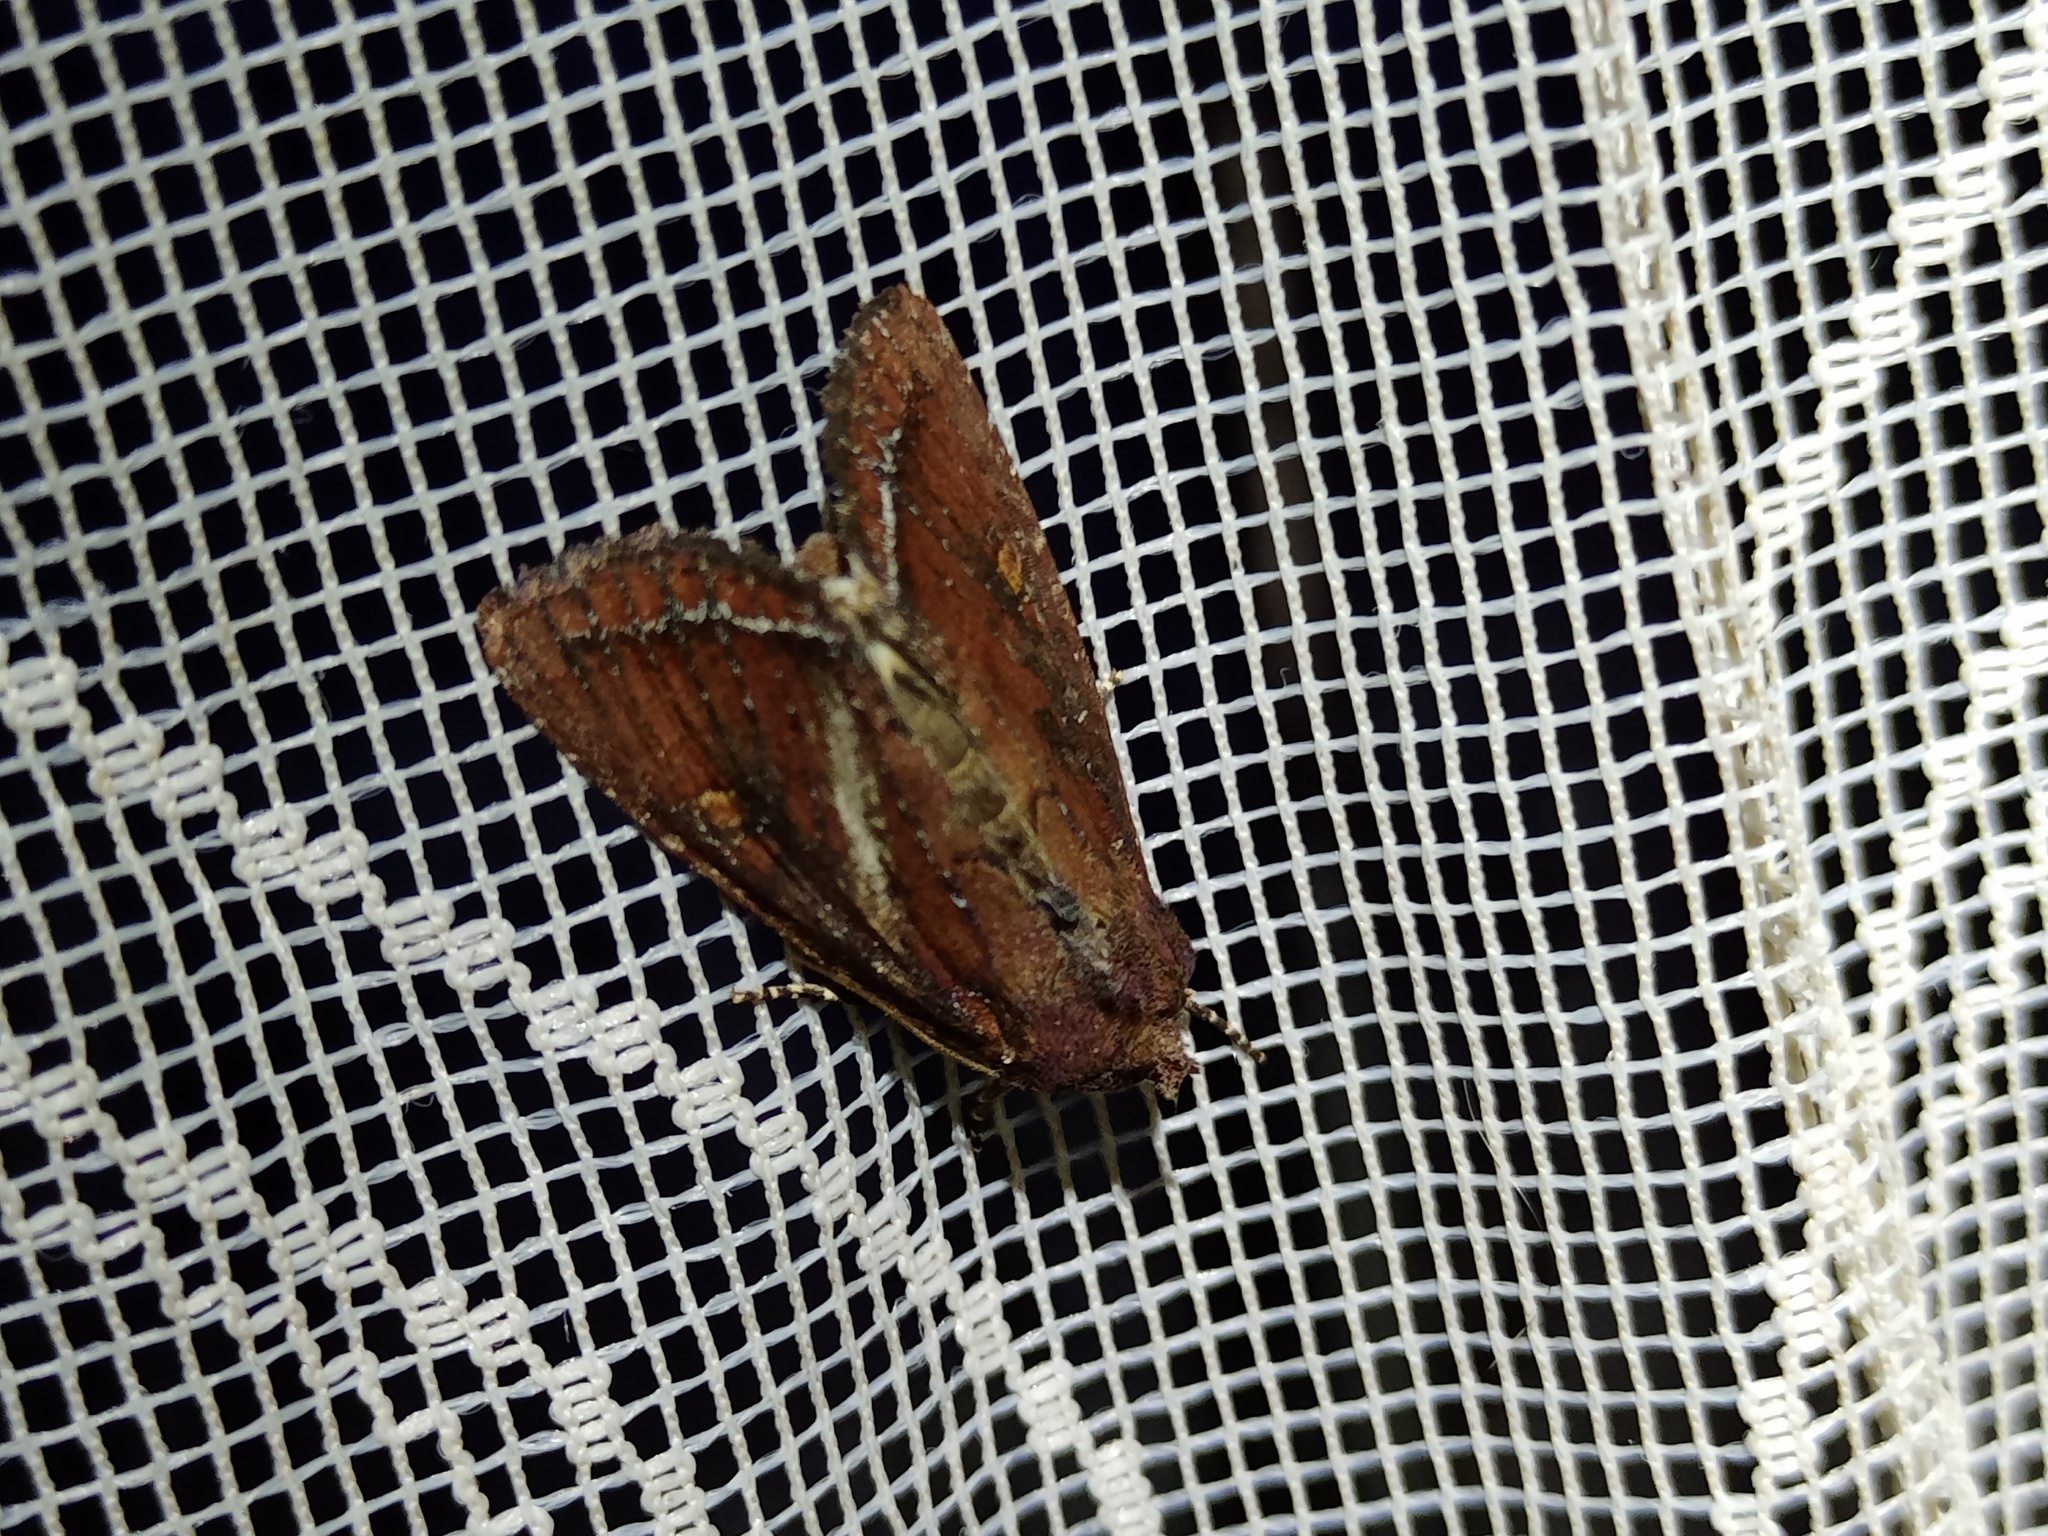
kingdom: Animalia
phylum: Arthropoda
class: Insecta
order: Lepidoptera
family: Noctuidae
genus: Lacanobia
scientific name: Lacanobia oleracea
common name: Bright-line brown-eye
